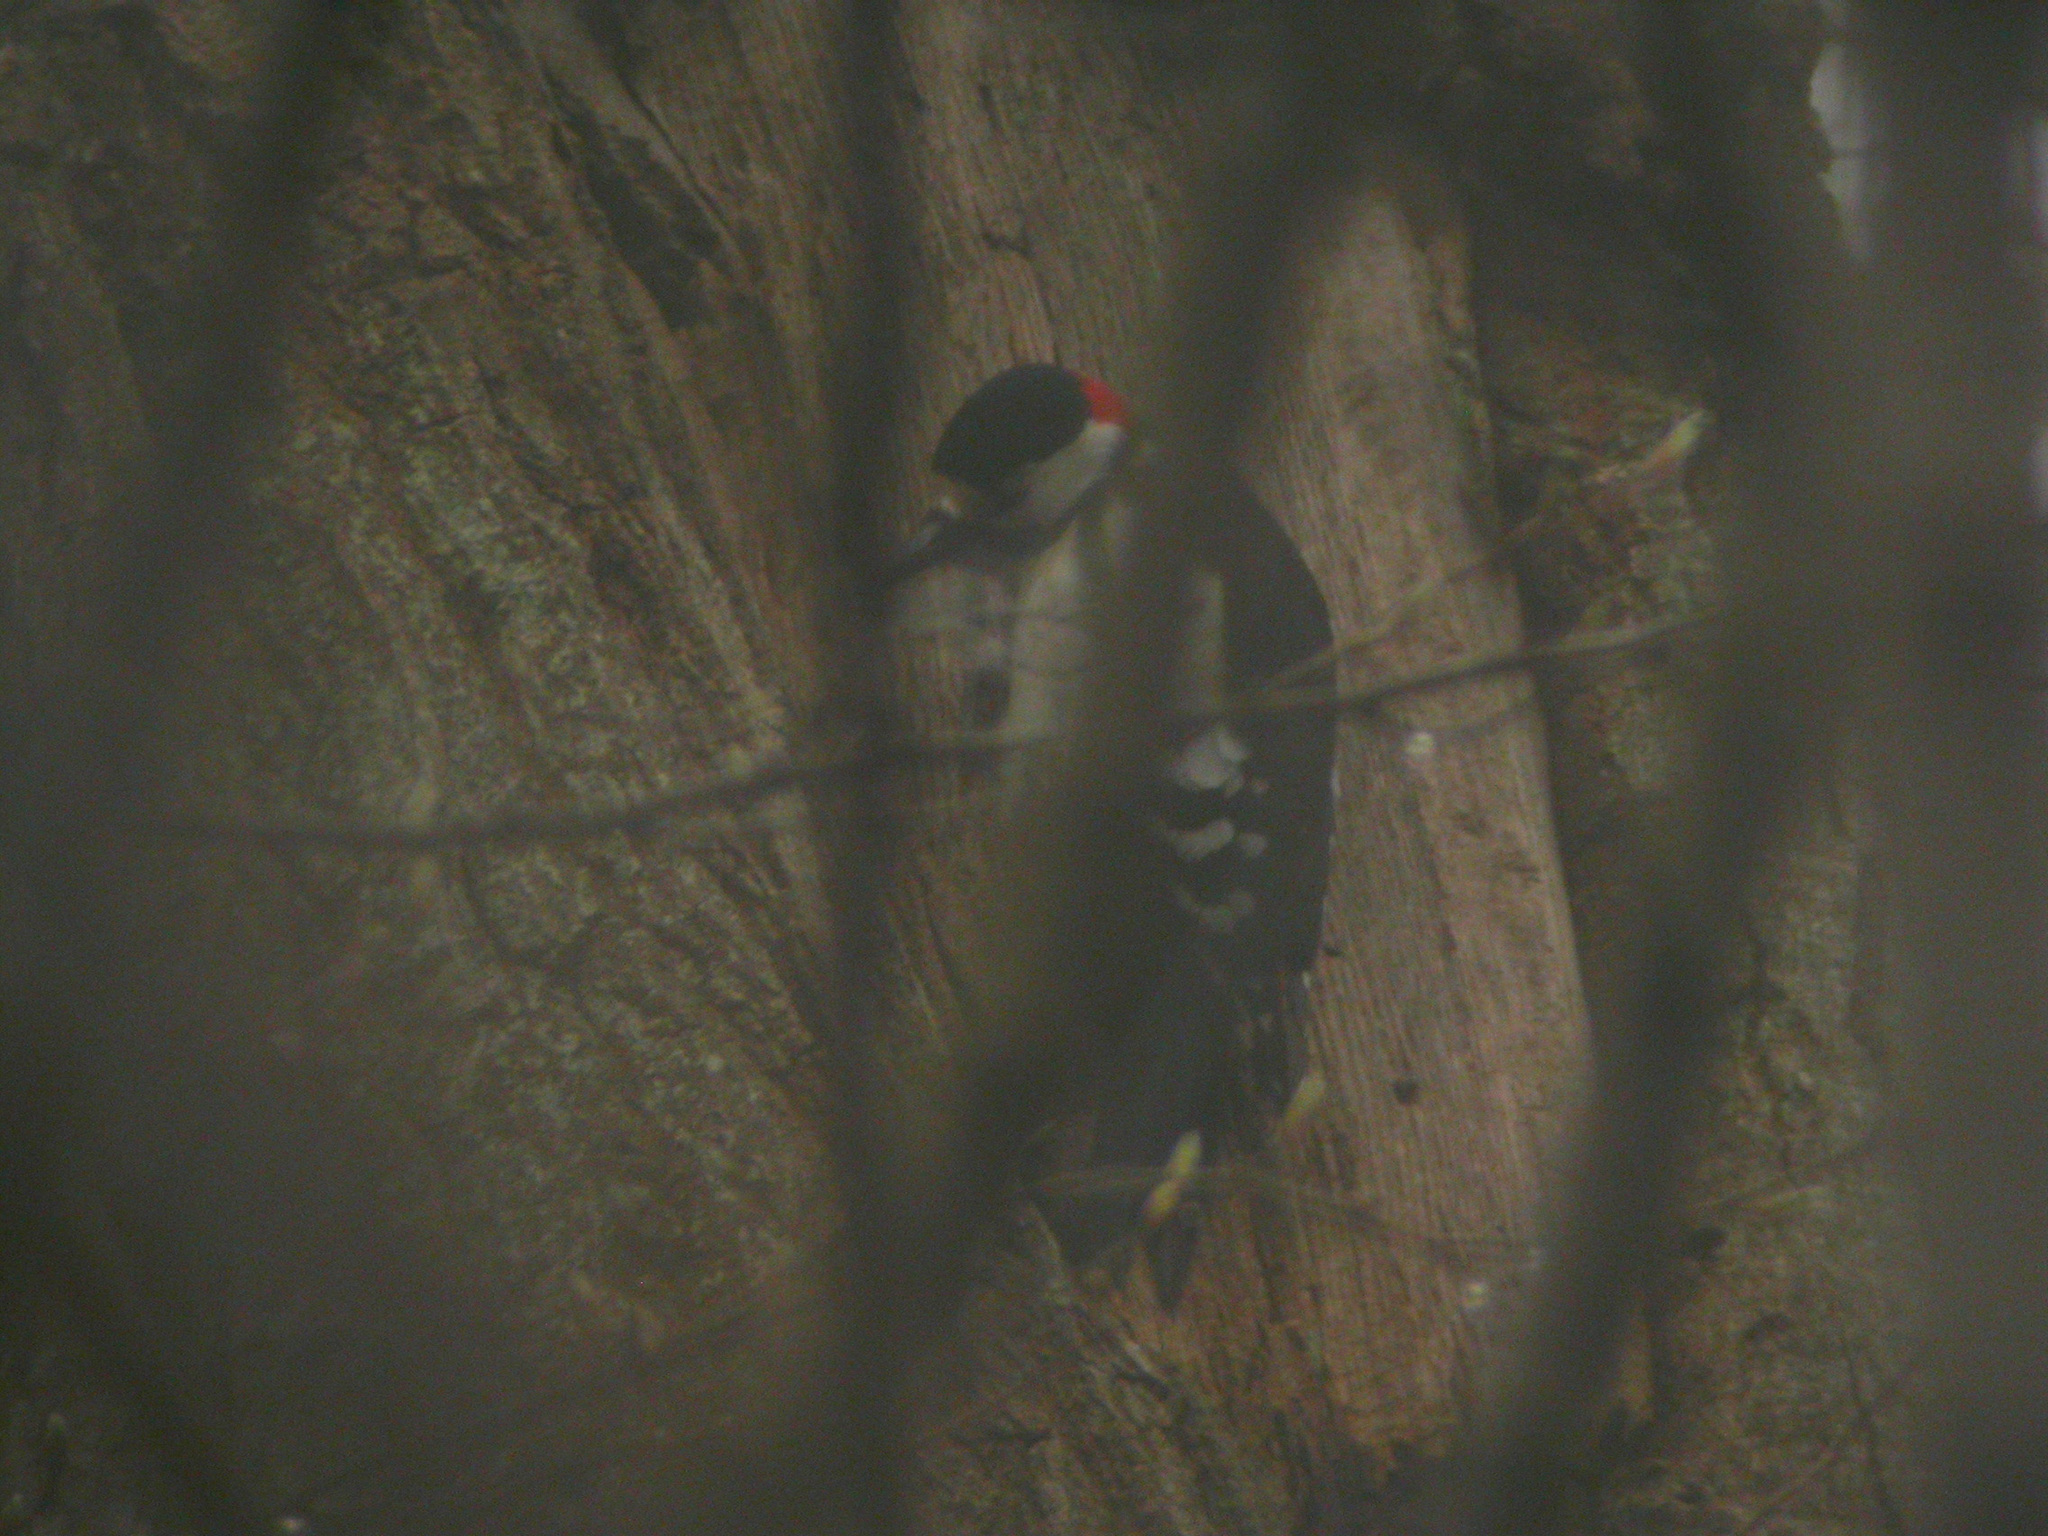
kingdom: Animalia
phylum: Chordata
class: Aves
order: Piciformes
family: Picidae
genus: Dendrocopos
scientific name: Dendrocopos major
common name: Great spotted woodpecker
